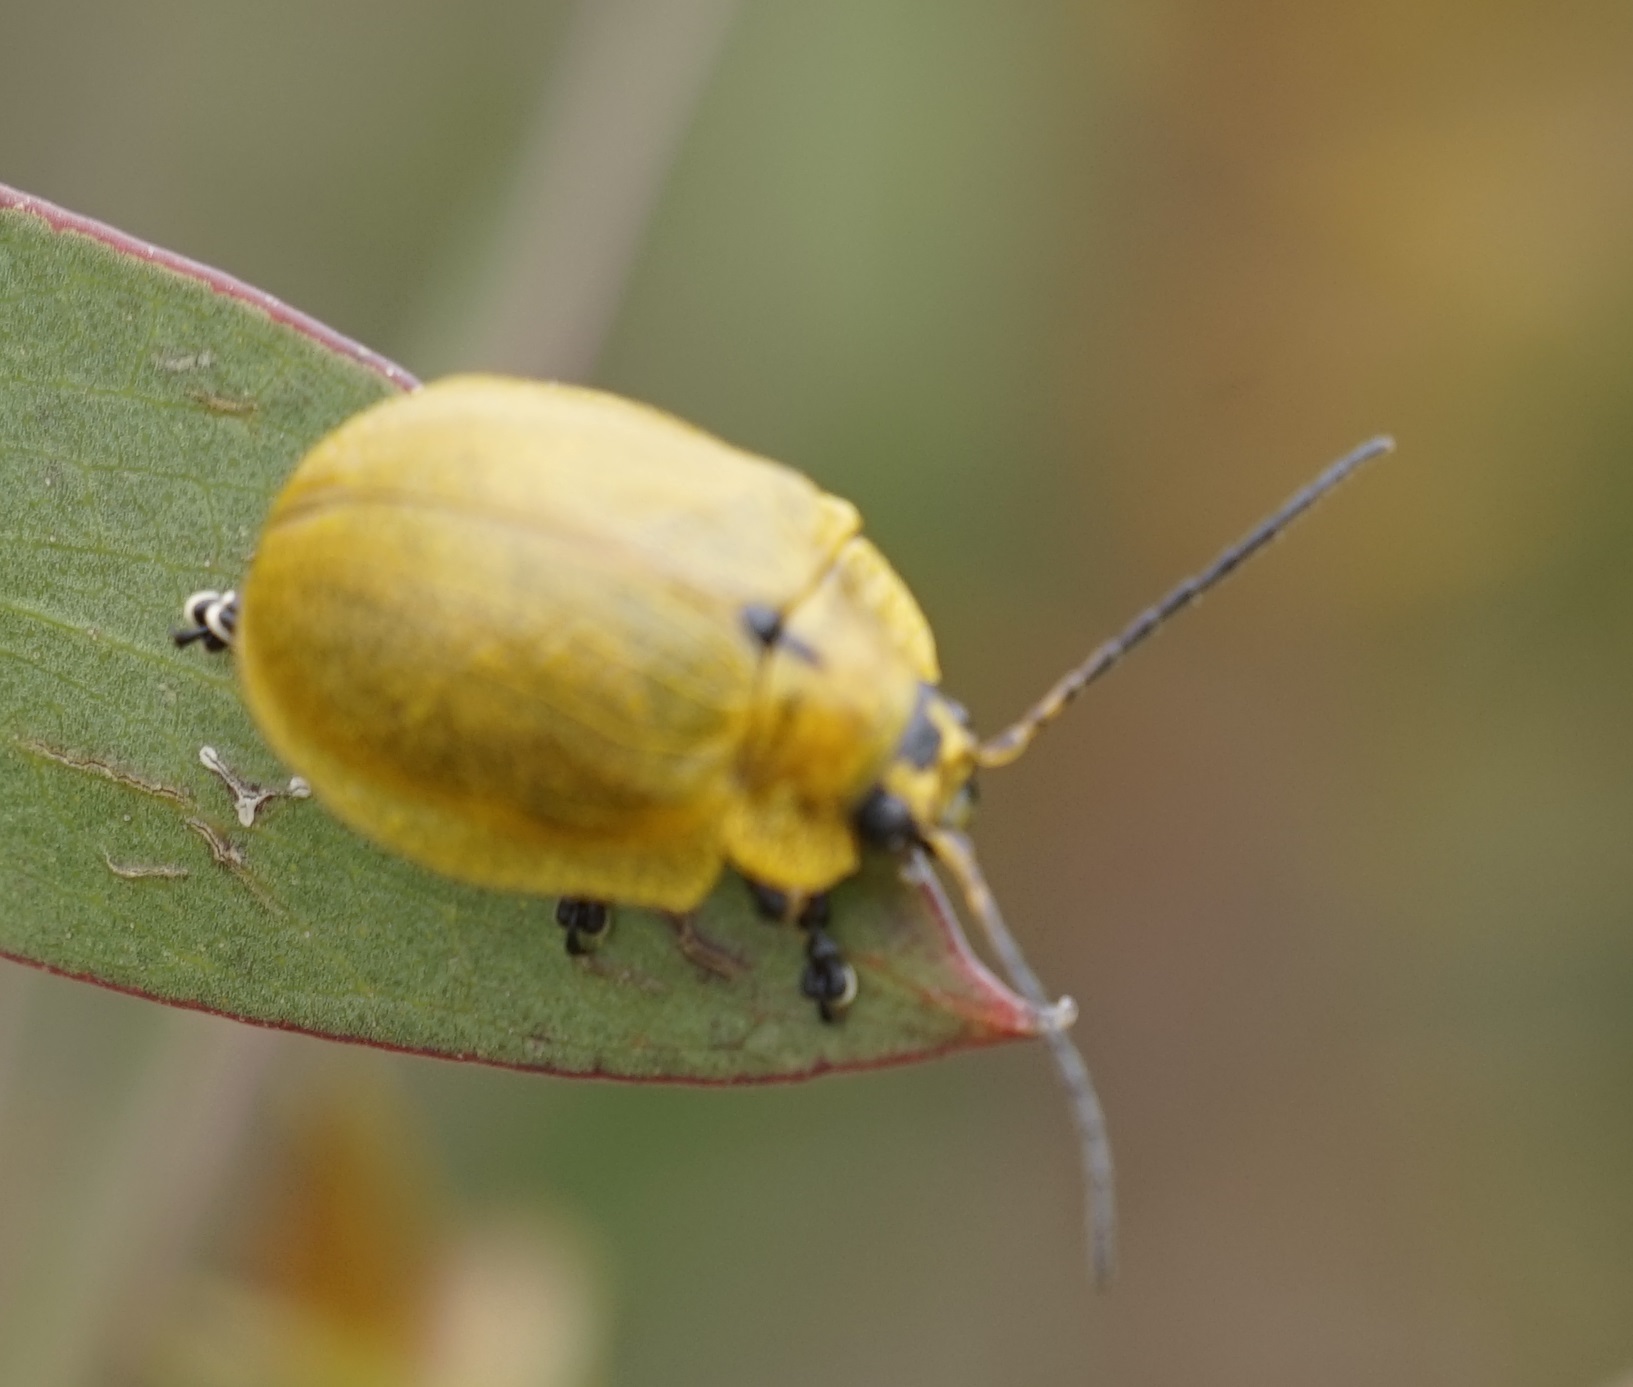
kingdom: Animalia
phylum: Arthropoda
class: Insecta
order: Coleoptera
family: Chrysomelidae
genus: Paropsis
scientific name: Paropsis
